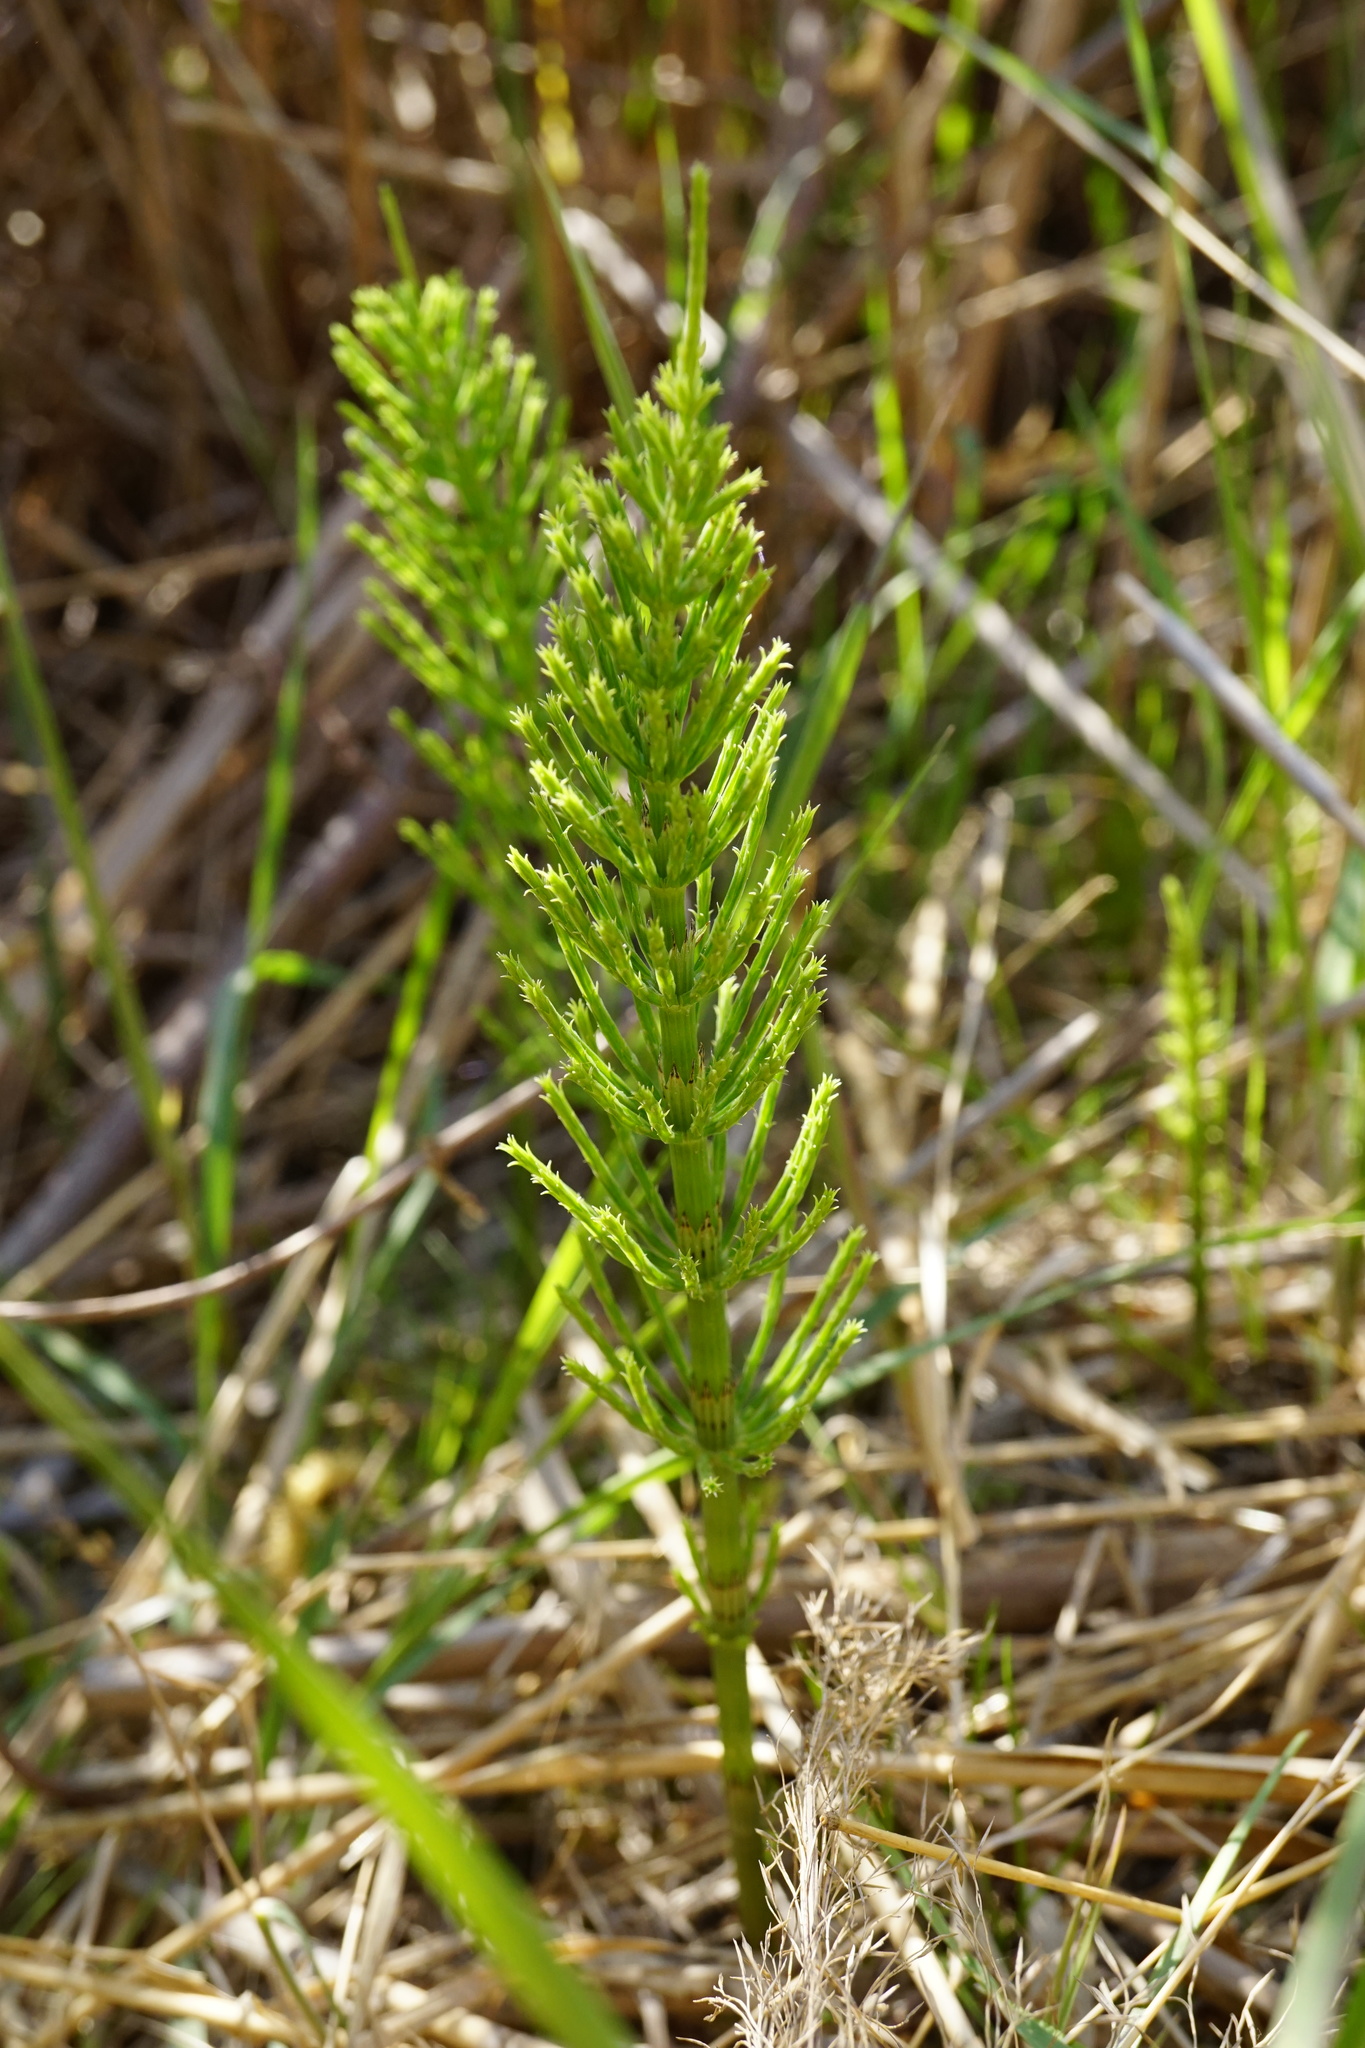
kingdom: Plantae
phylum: Tracheophyta
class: Polypodiopsida
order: Equisetales
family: Equisetaceae
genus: Equisetum
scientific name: Equisetum arvense
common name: Field horsetail
